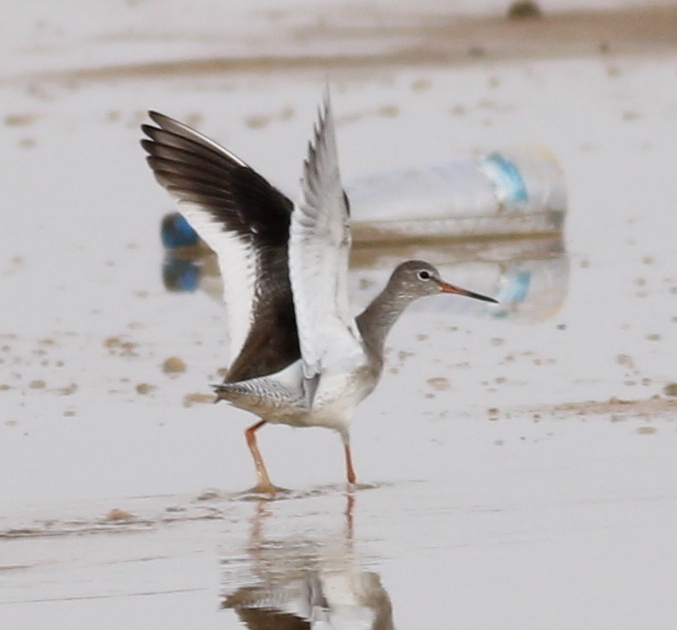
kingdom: Animalia
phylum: Chordata
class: Aves
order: Charadriiformes
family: Scolopacidae
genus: Tringa
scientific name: Tringa totanus
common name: Common redshank
